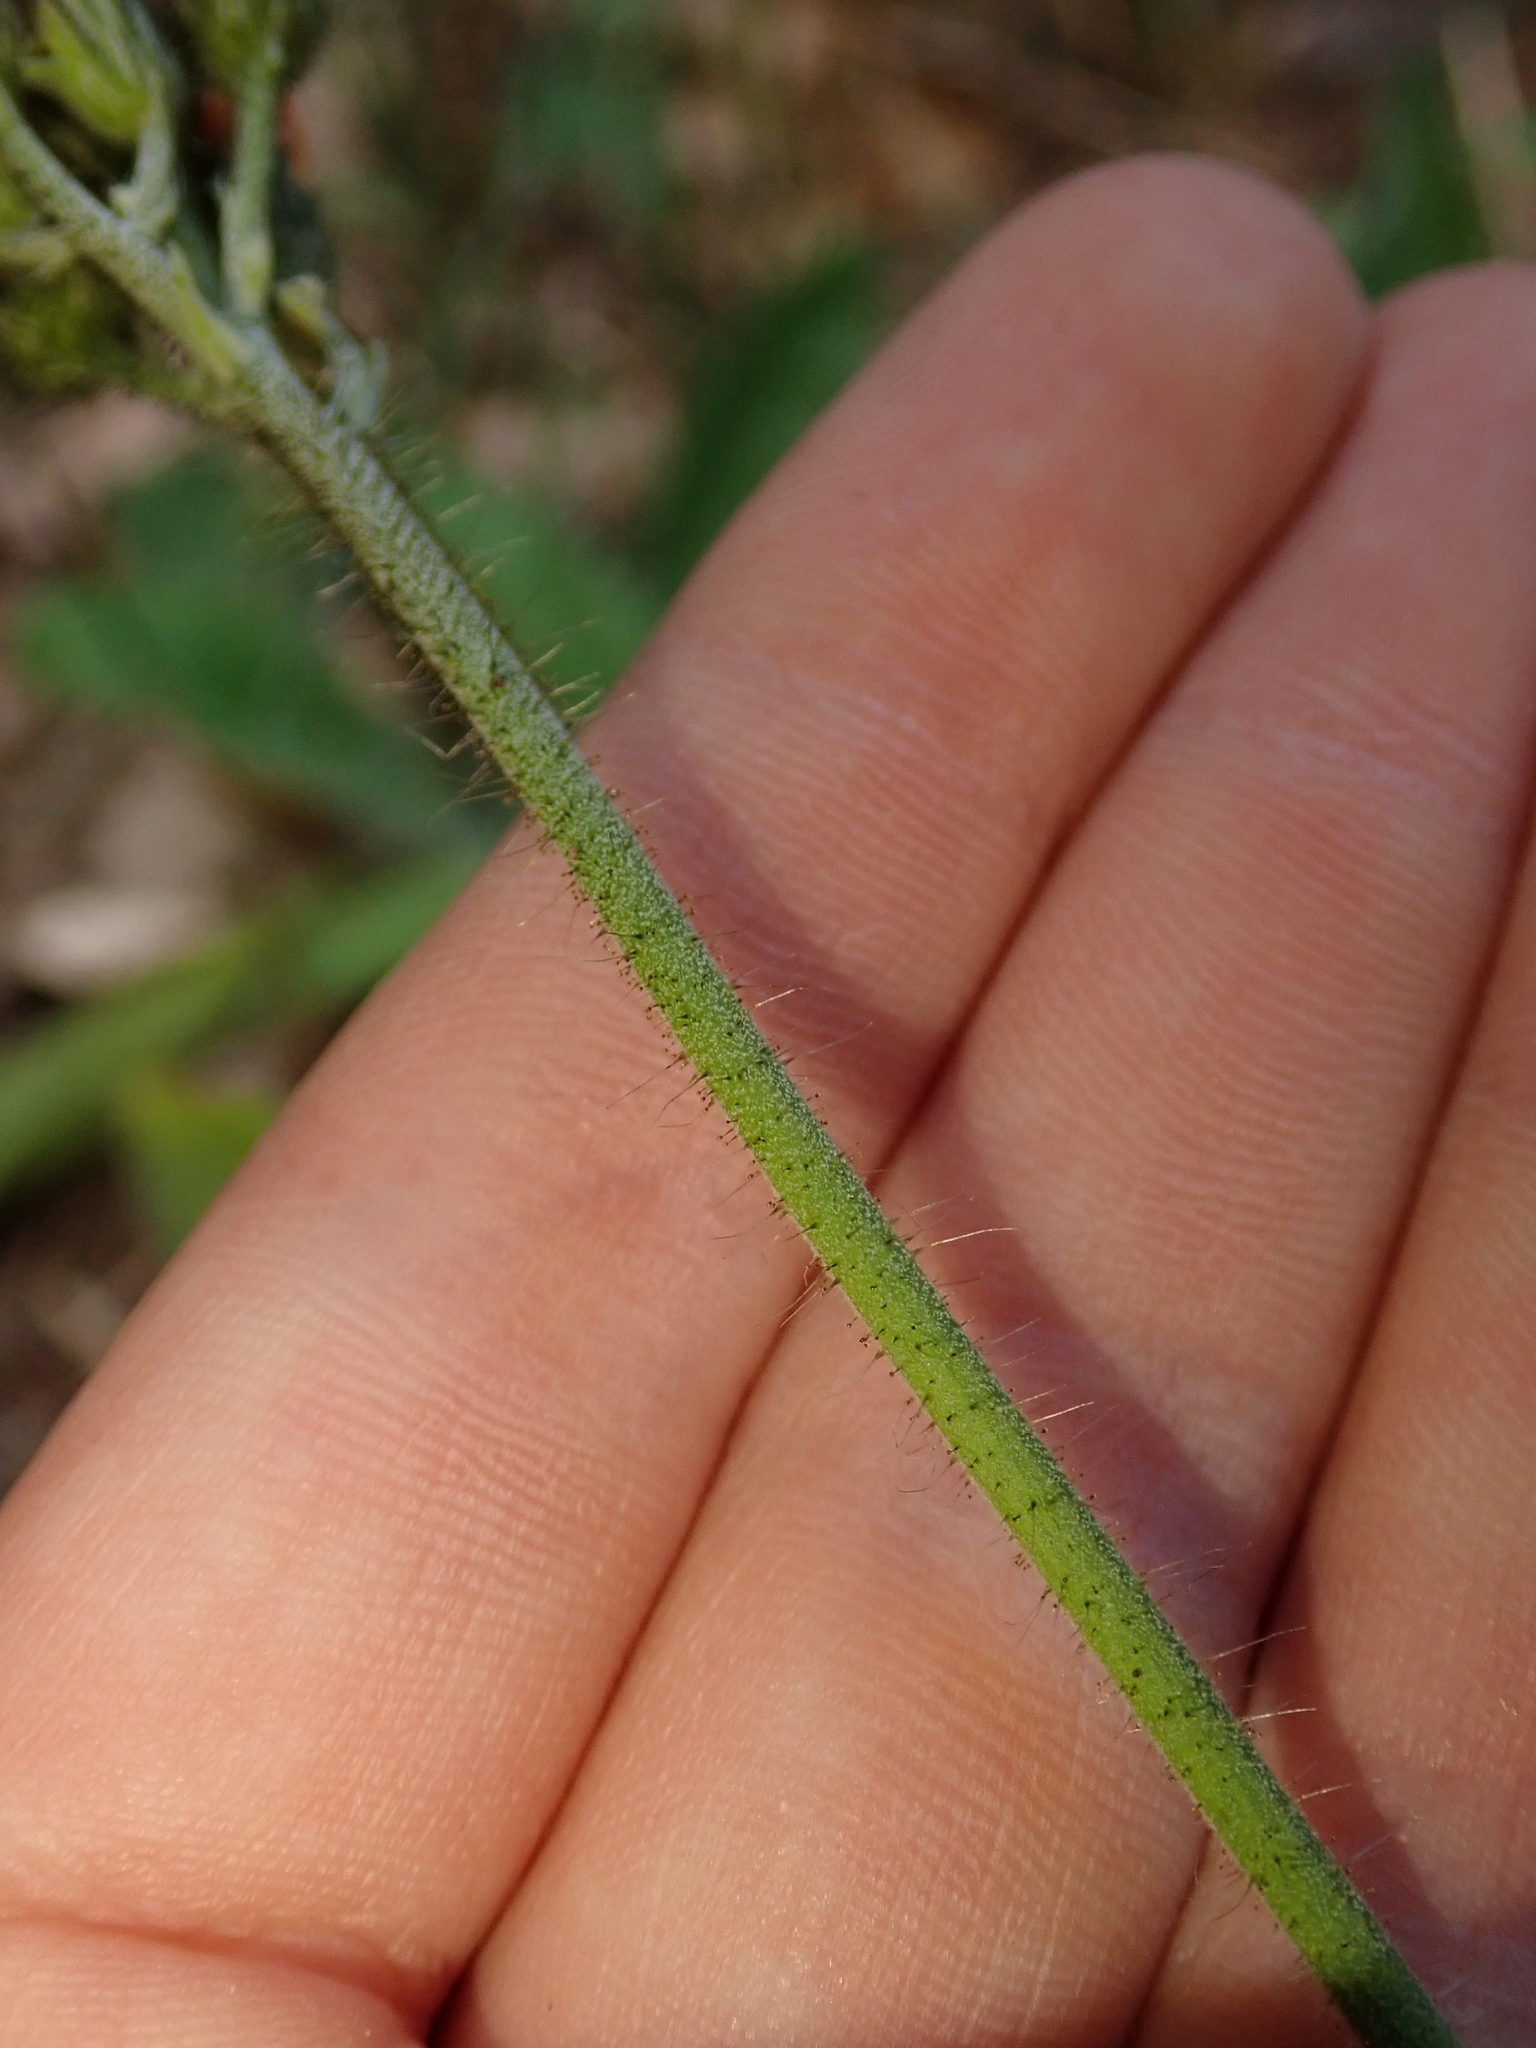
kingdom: Plantae
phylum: Tracheophyta
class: Magnoliopsida
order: Asterales
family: Asteraceae
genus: Pilosella
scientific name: Pilosella aurantiaca
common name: Fox-and-cubs
